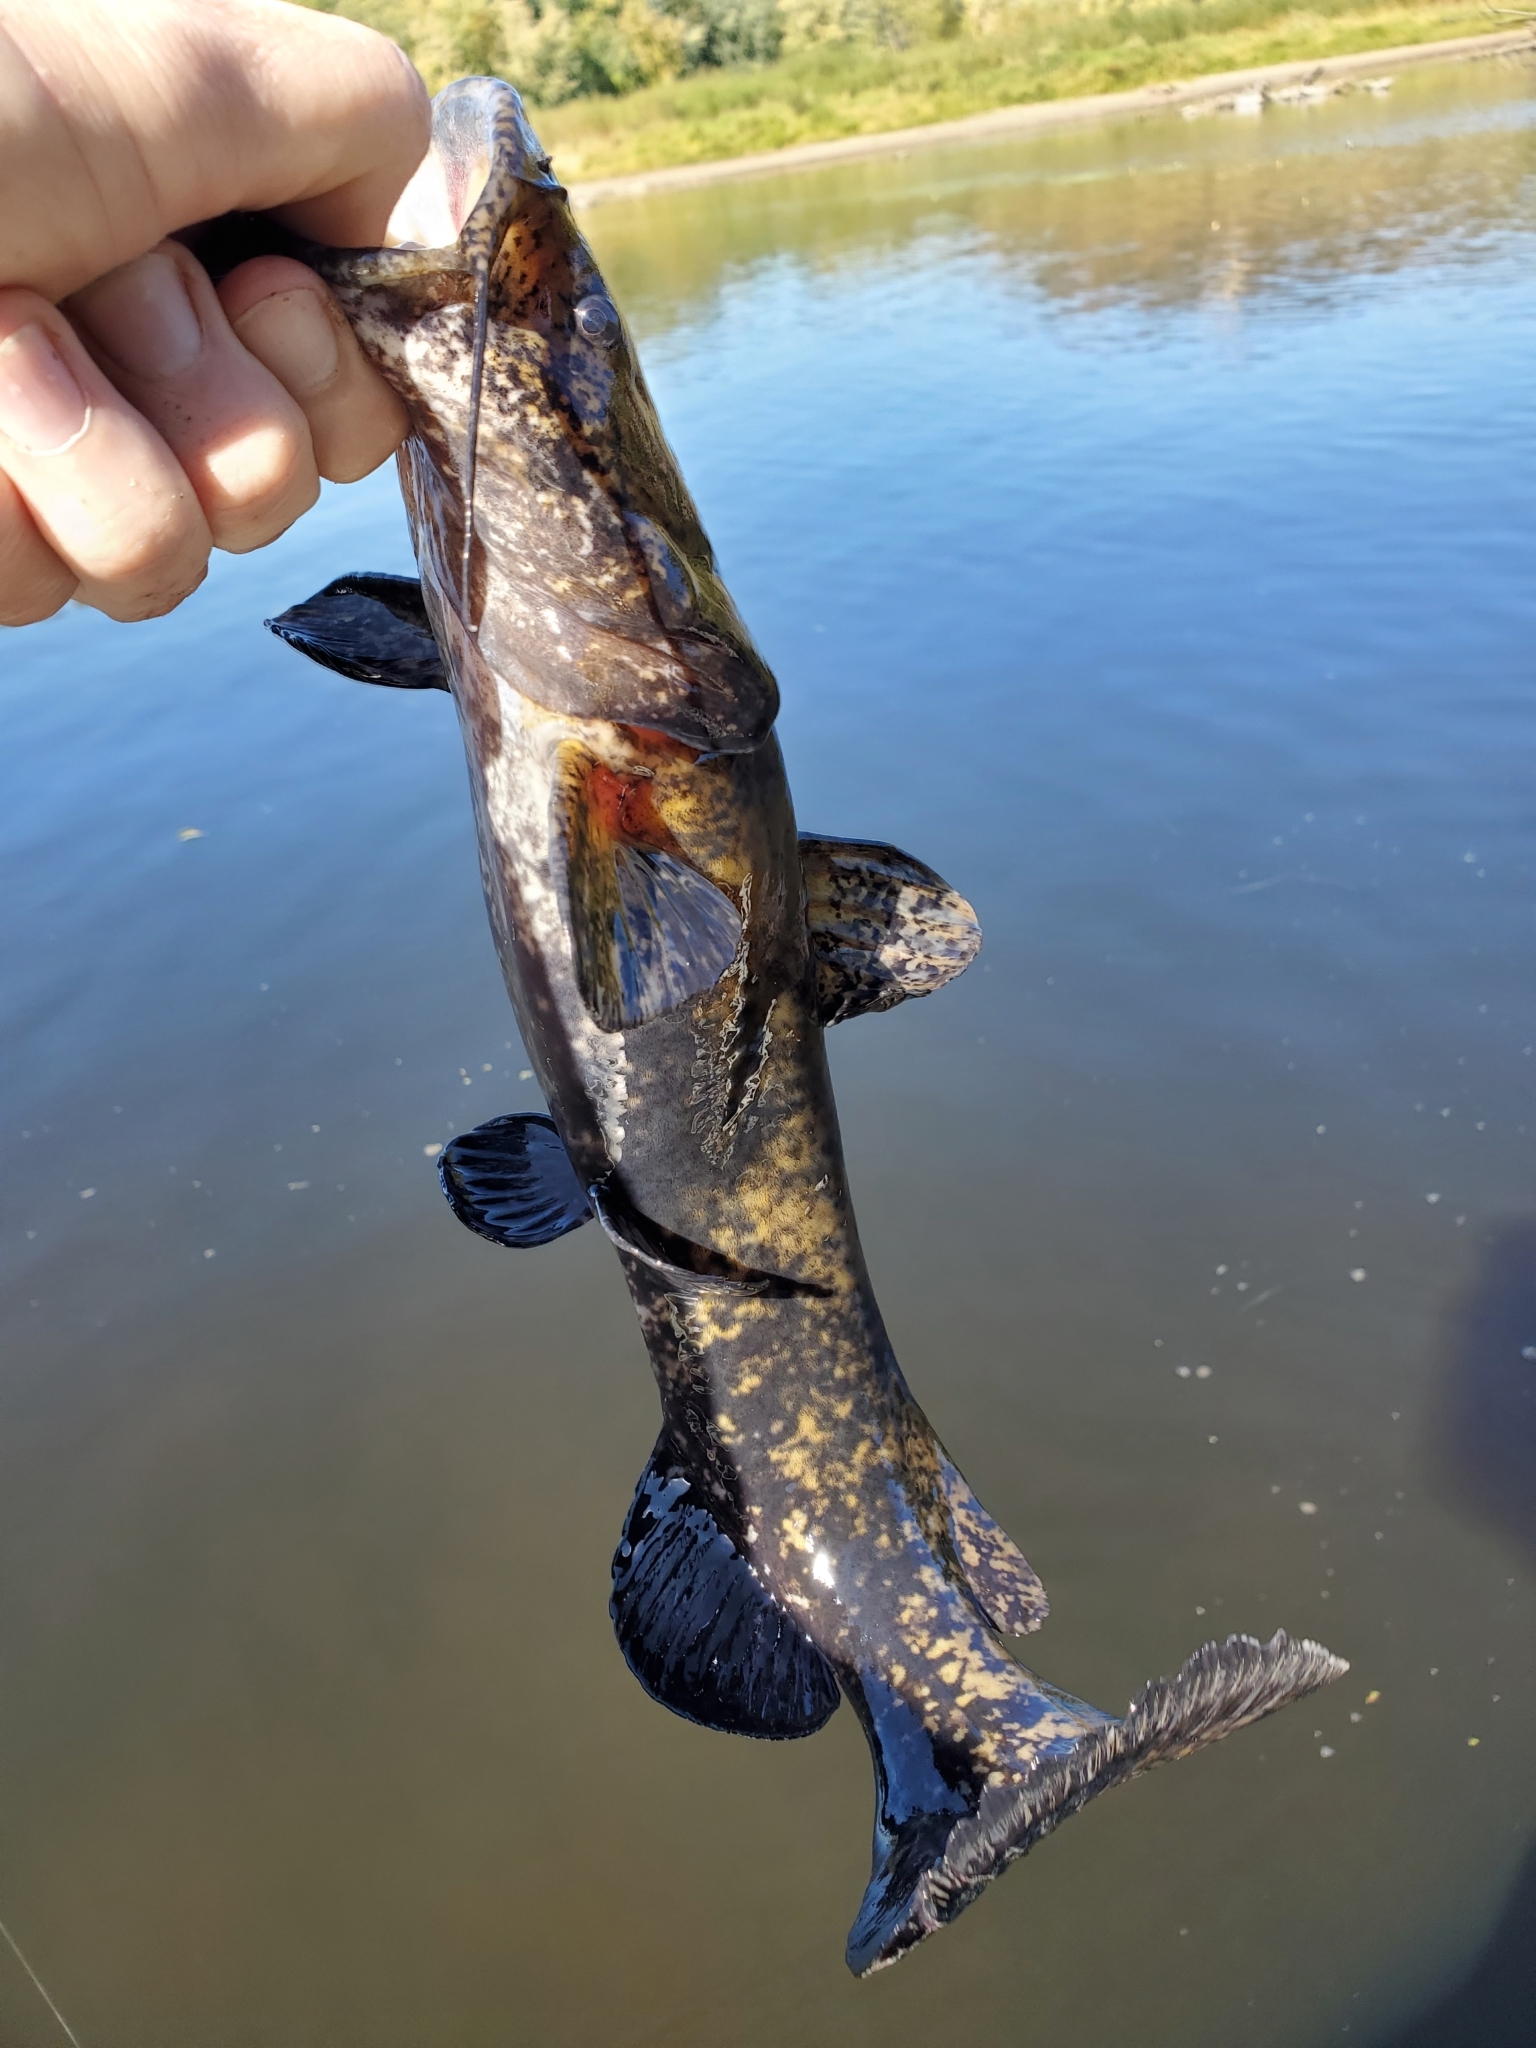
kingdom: Animalia
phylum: Chordata
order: Siluriformes
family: Ictaluridae
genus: Pylodictis
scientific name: Pylodictis olivaris
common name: Flathead catfish
